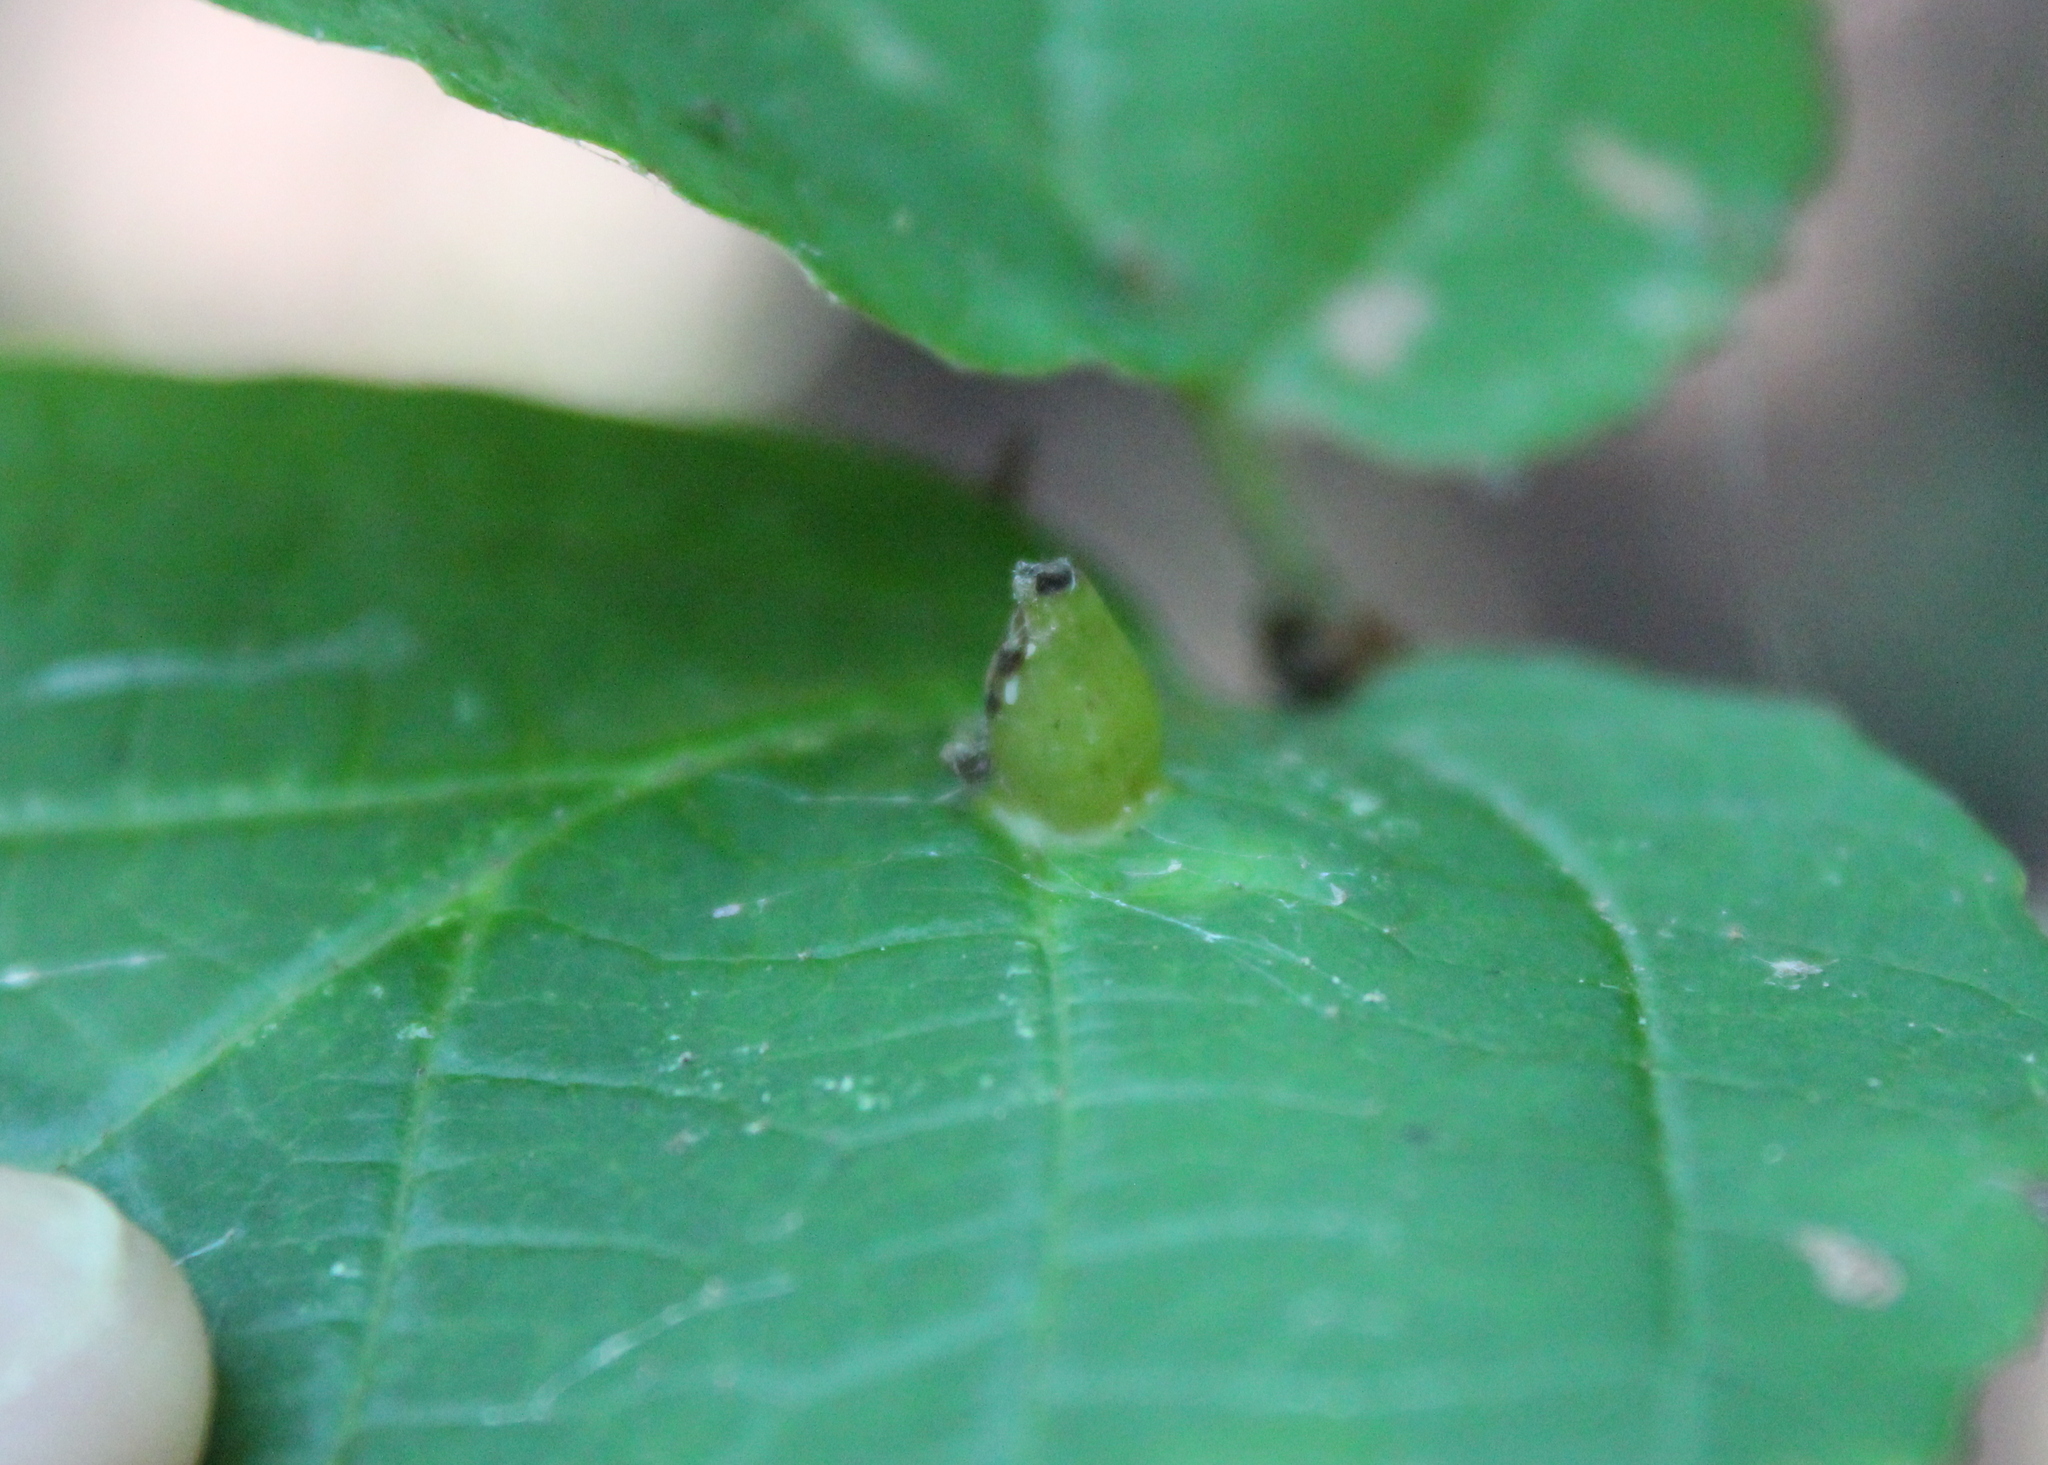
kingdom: Animalia
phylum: Arthropoda
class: Insecta
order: Hemiptera
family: Aphididae
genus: Hormaphis
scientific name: Hormaphis hamamelidis
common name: Witch-hazel cone gall aphid
